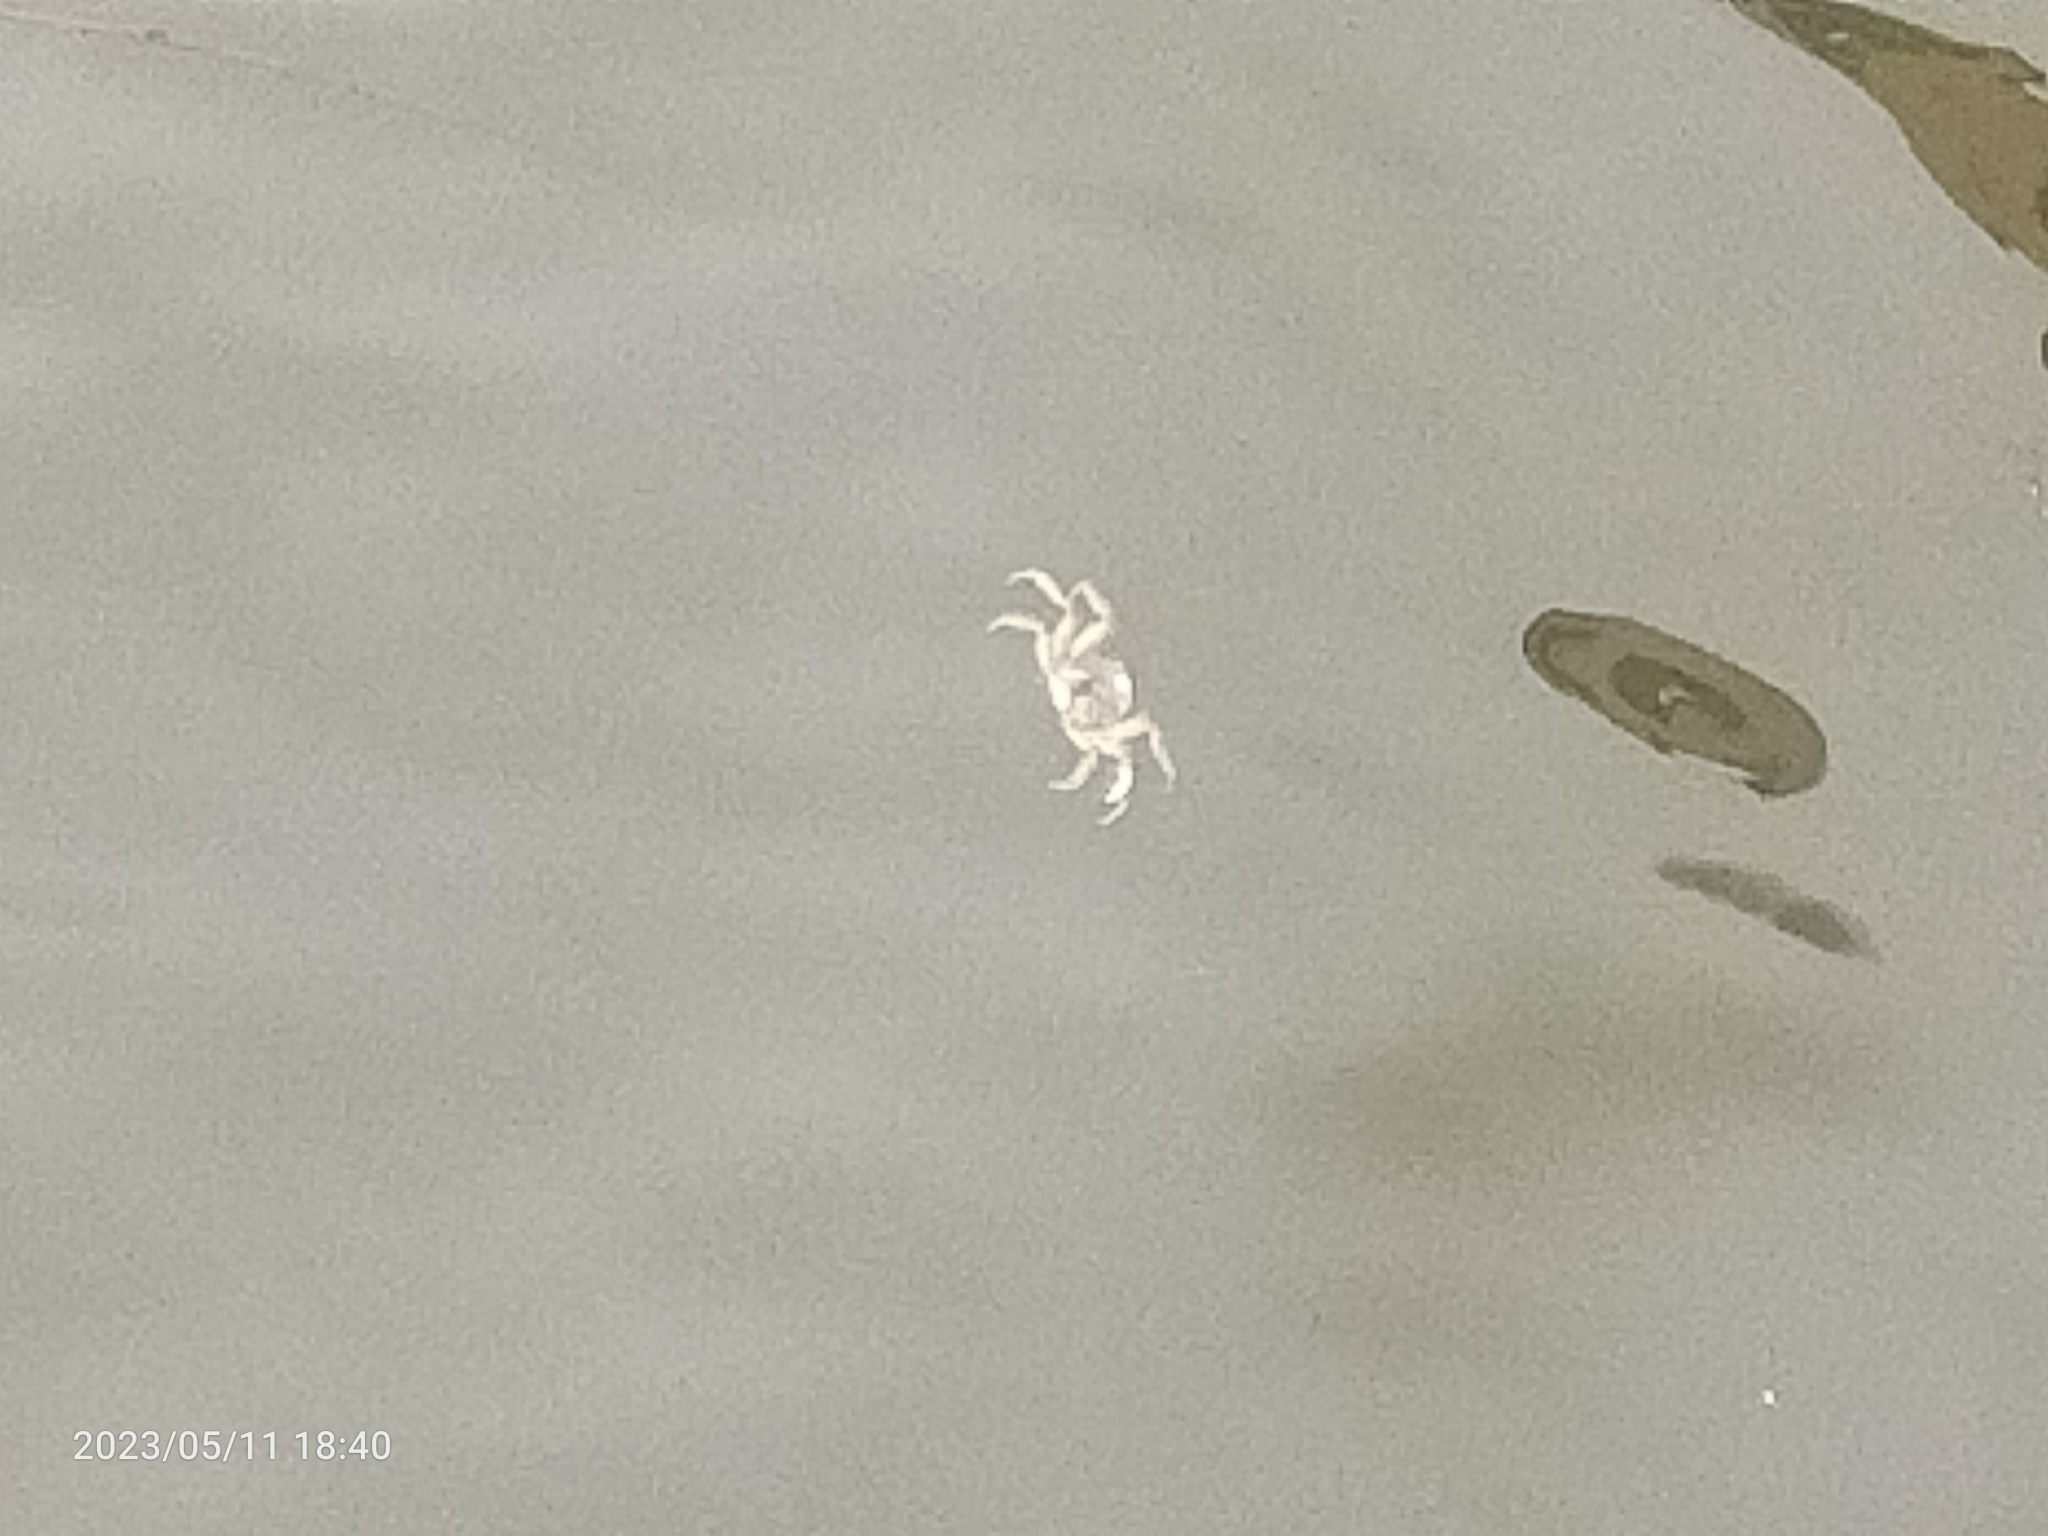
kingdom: Animalia
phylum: Arthropoda
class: Malacostraca
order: Decapoda
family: Varunidae
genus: Eriocheir
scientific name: Eriocheir sinensis
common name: Chinese mitten crab
